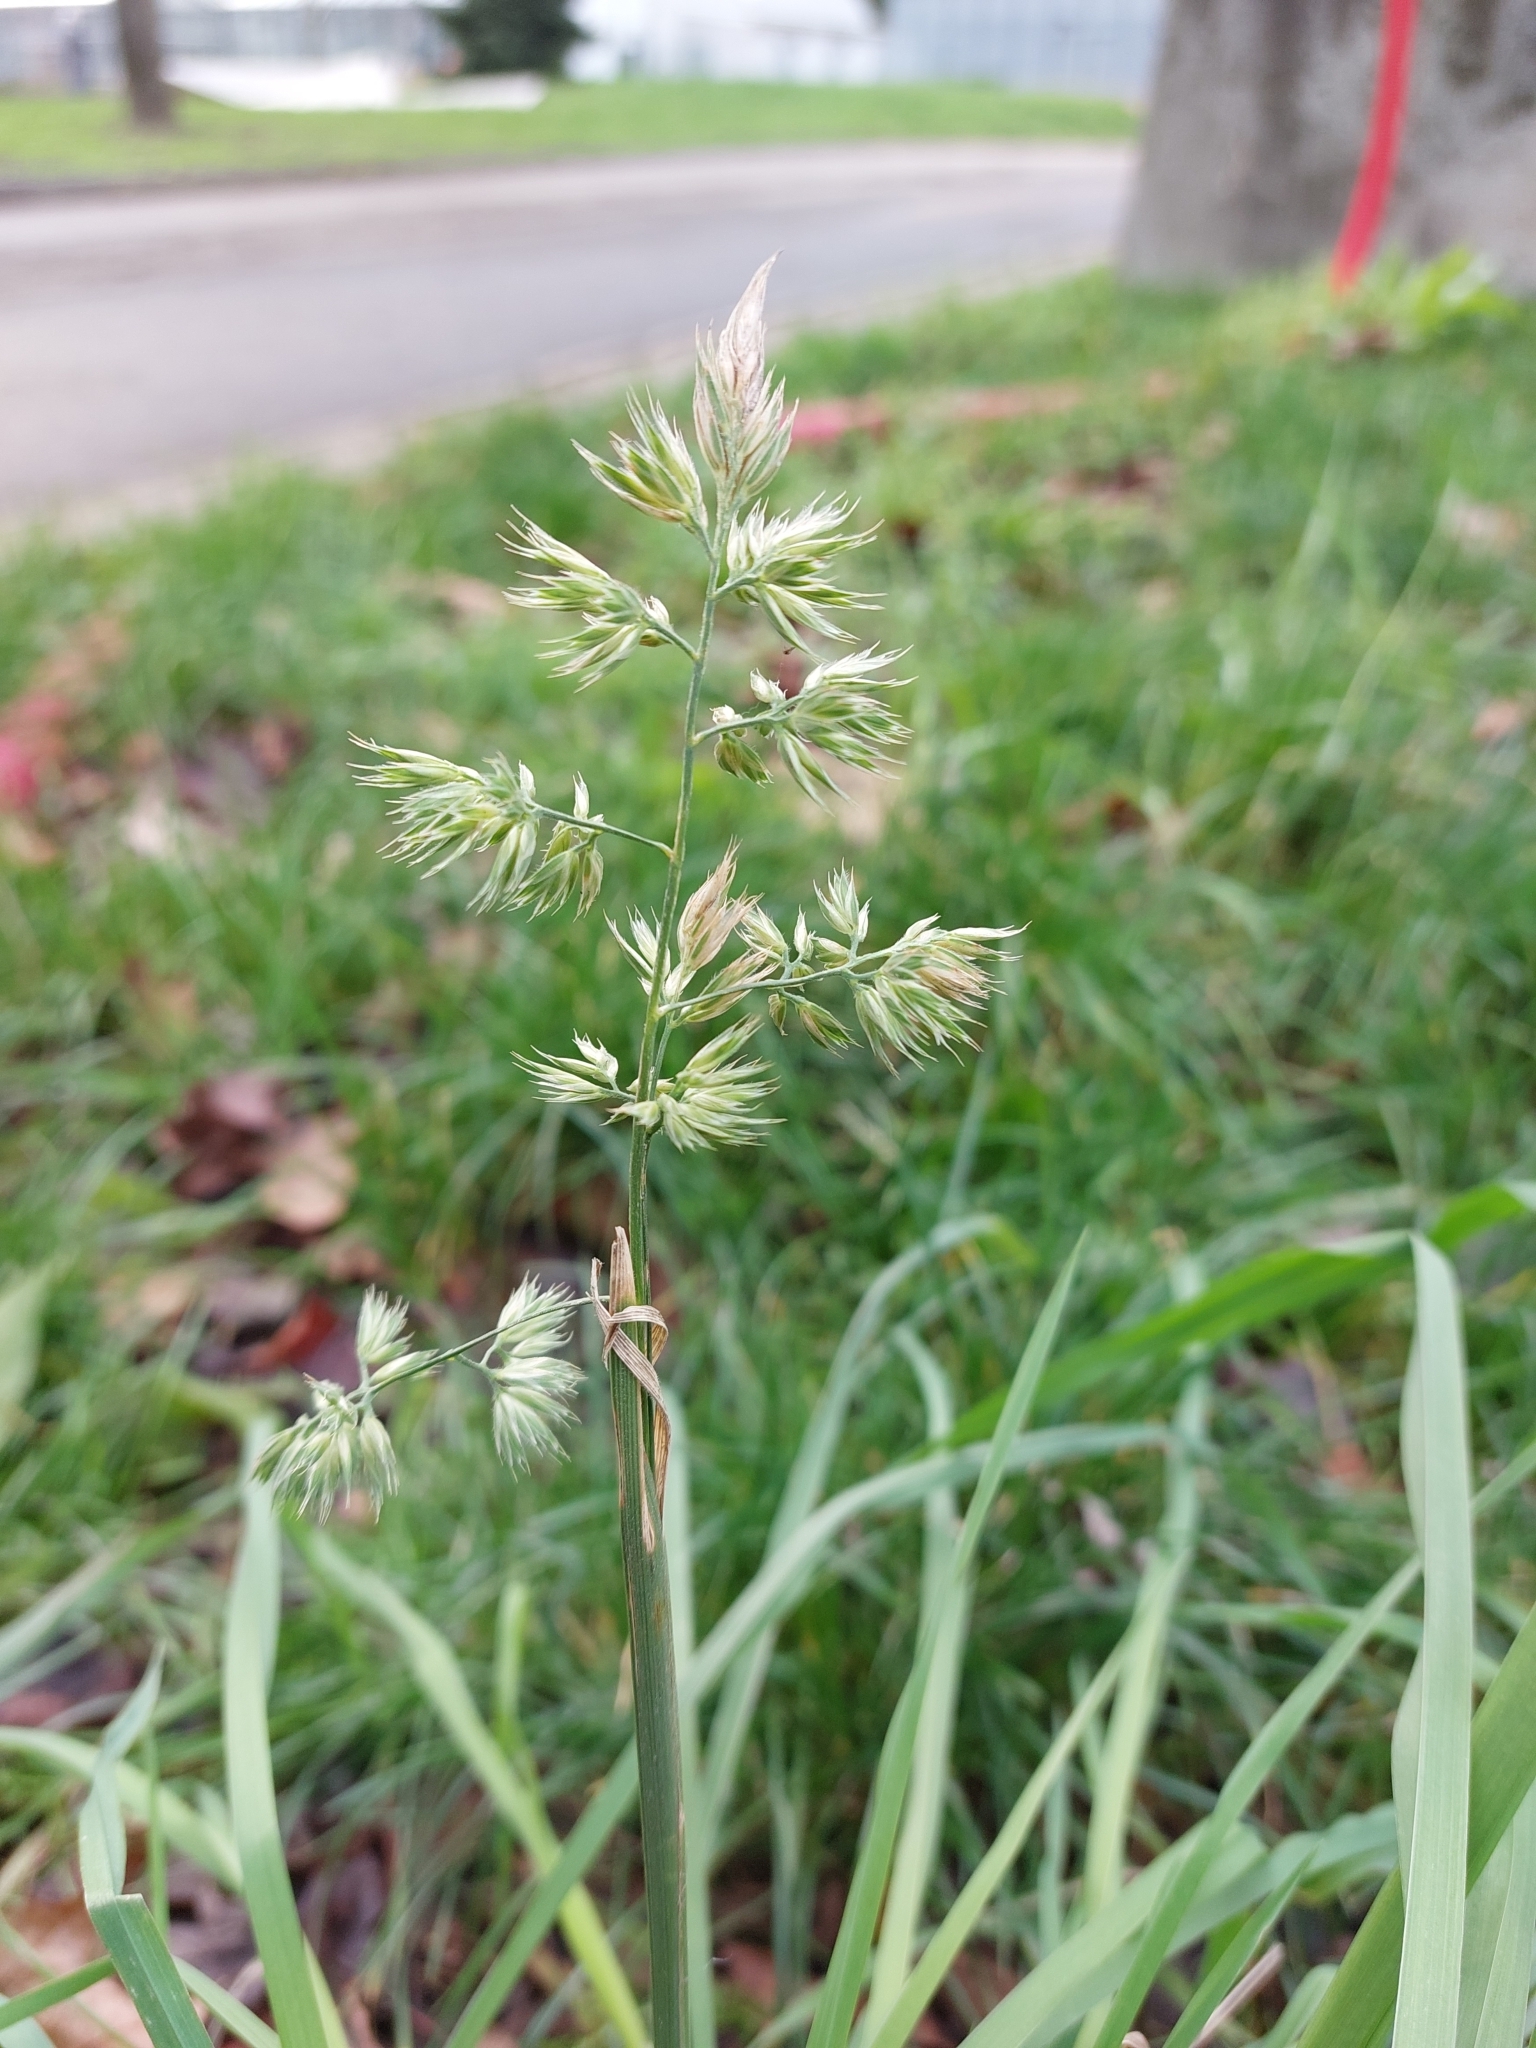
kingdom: Plantae
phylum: Tracheophyta
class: Liliopsida
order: Poales
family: Poaceae
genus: Dactylis
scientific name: Dactylis glomerata
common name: Orchardgrass
